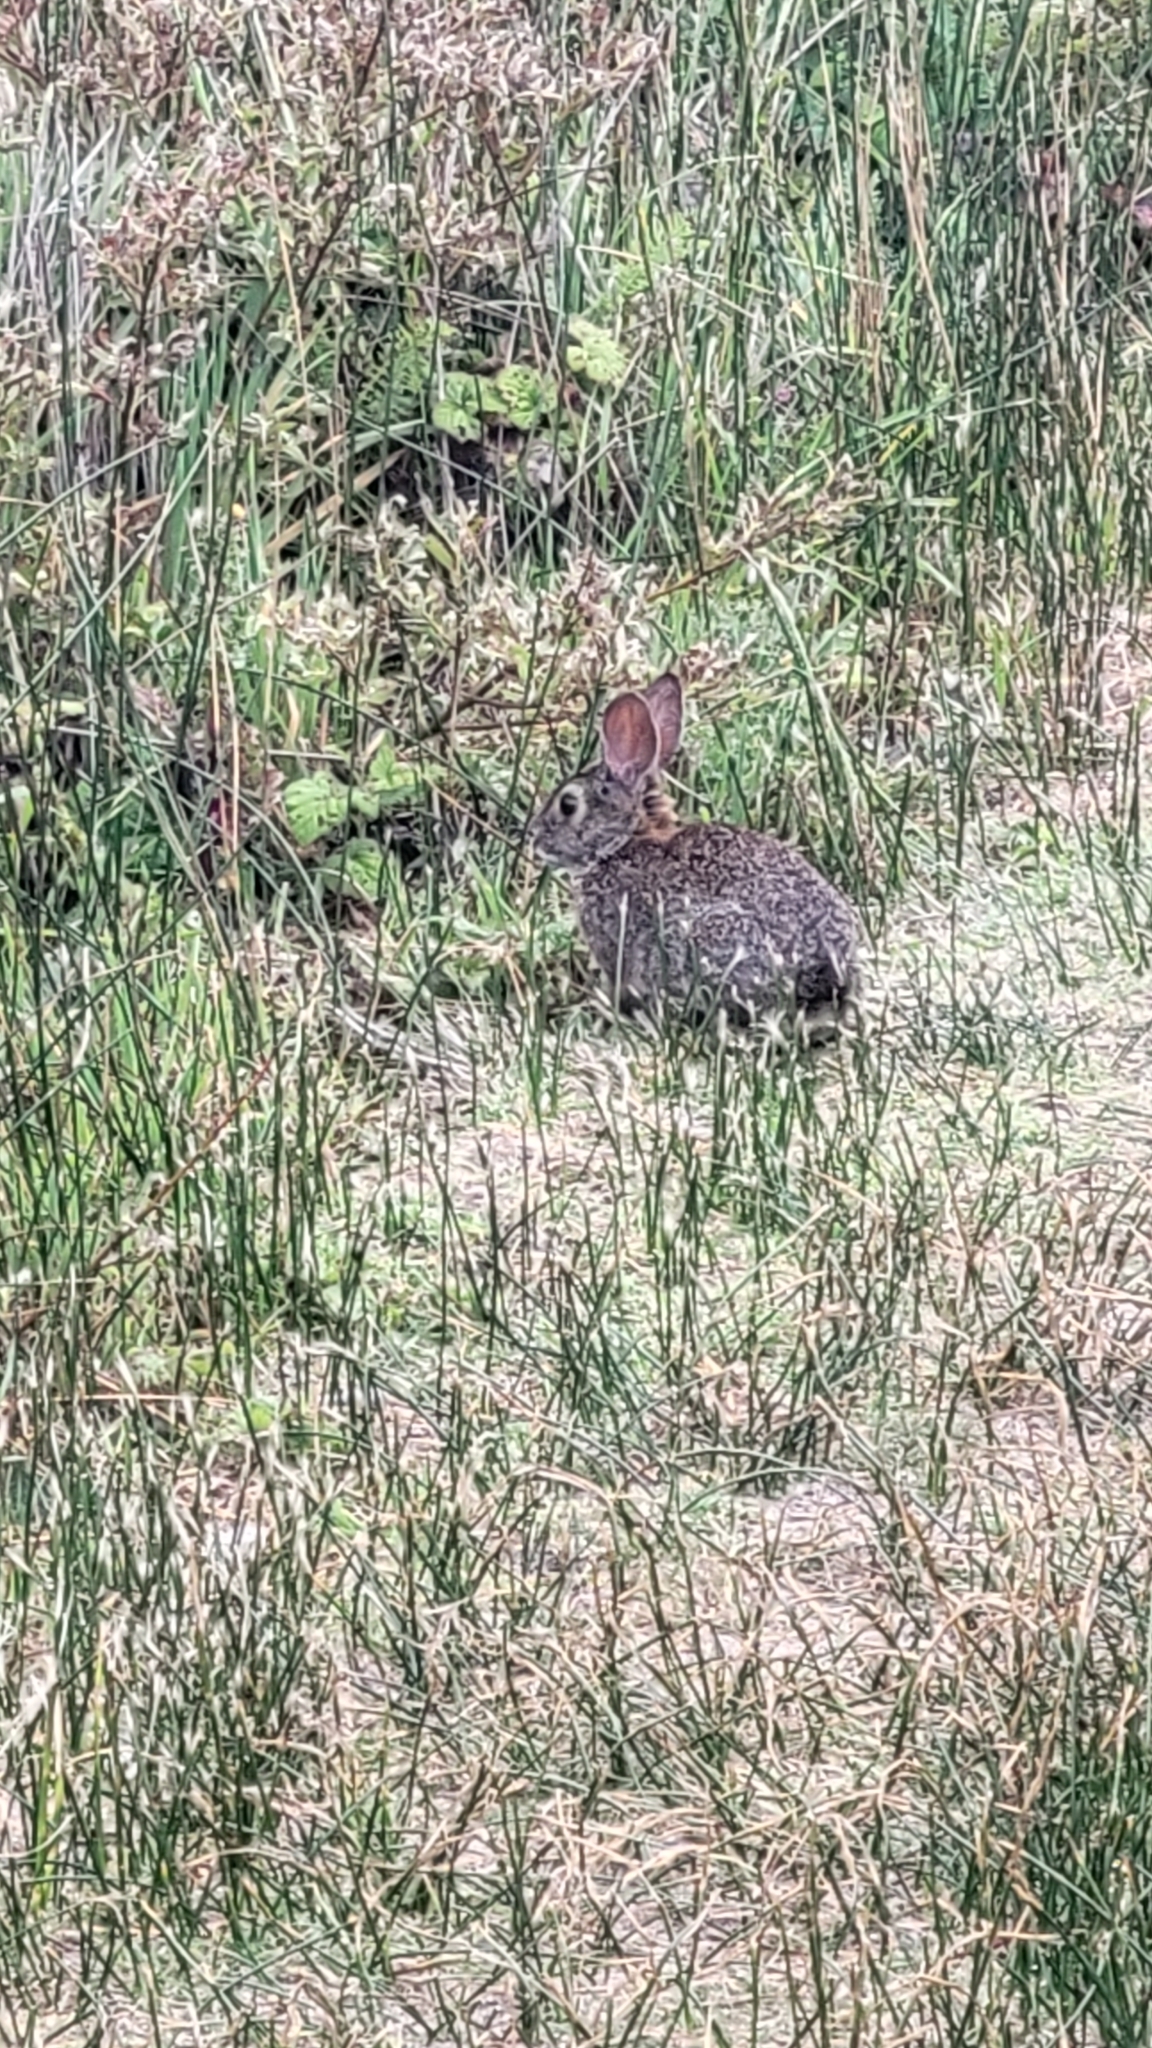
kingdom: Animalia
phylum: Chordata
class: Mammalia
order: Lagomorpha
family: Leporidae
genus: Sylvilagus
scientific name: Sylvilagus bachmani
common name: Brush rabbit
